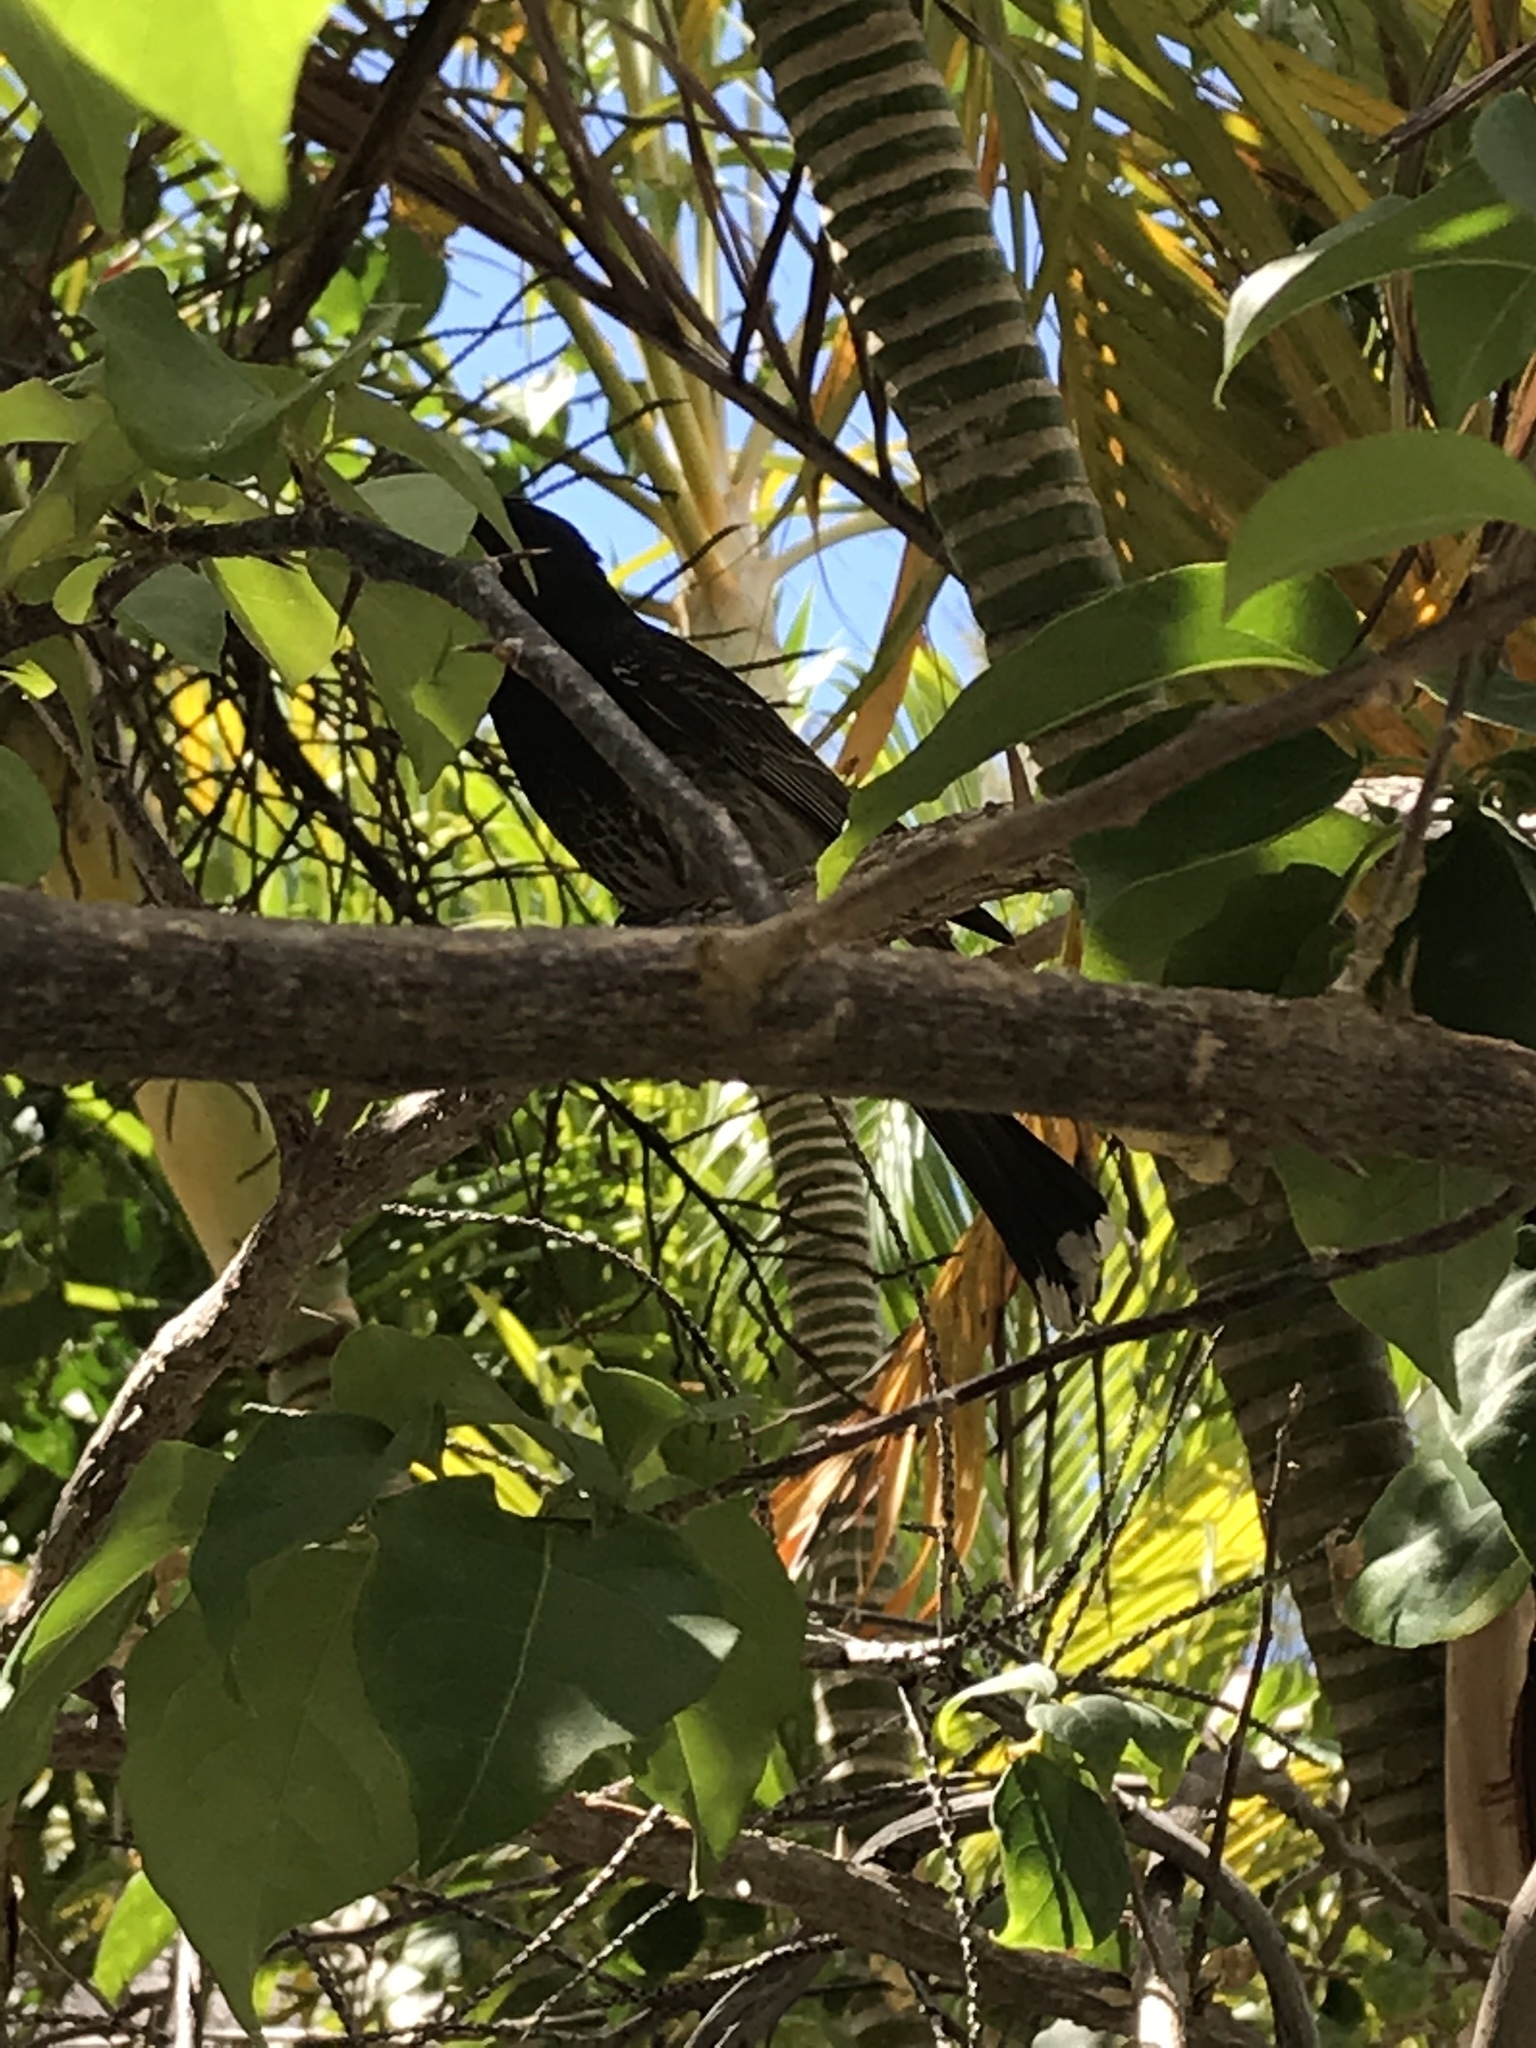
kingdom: Animalia
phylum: Chordata
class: Aves
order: Passeriformes
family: Pycnonotidae
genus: Pycnonotus
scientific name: Pycnonotus cafer
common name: Red-vented bulbul
